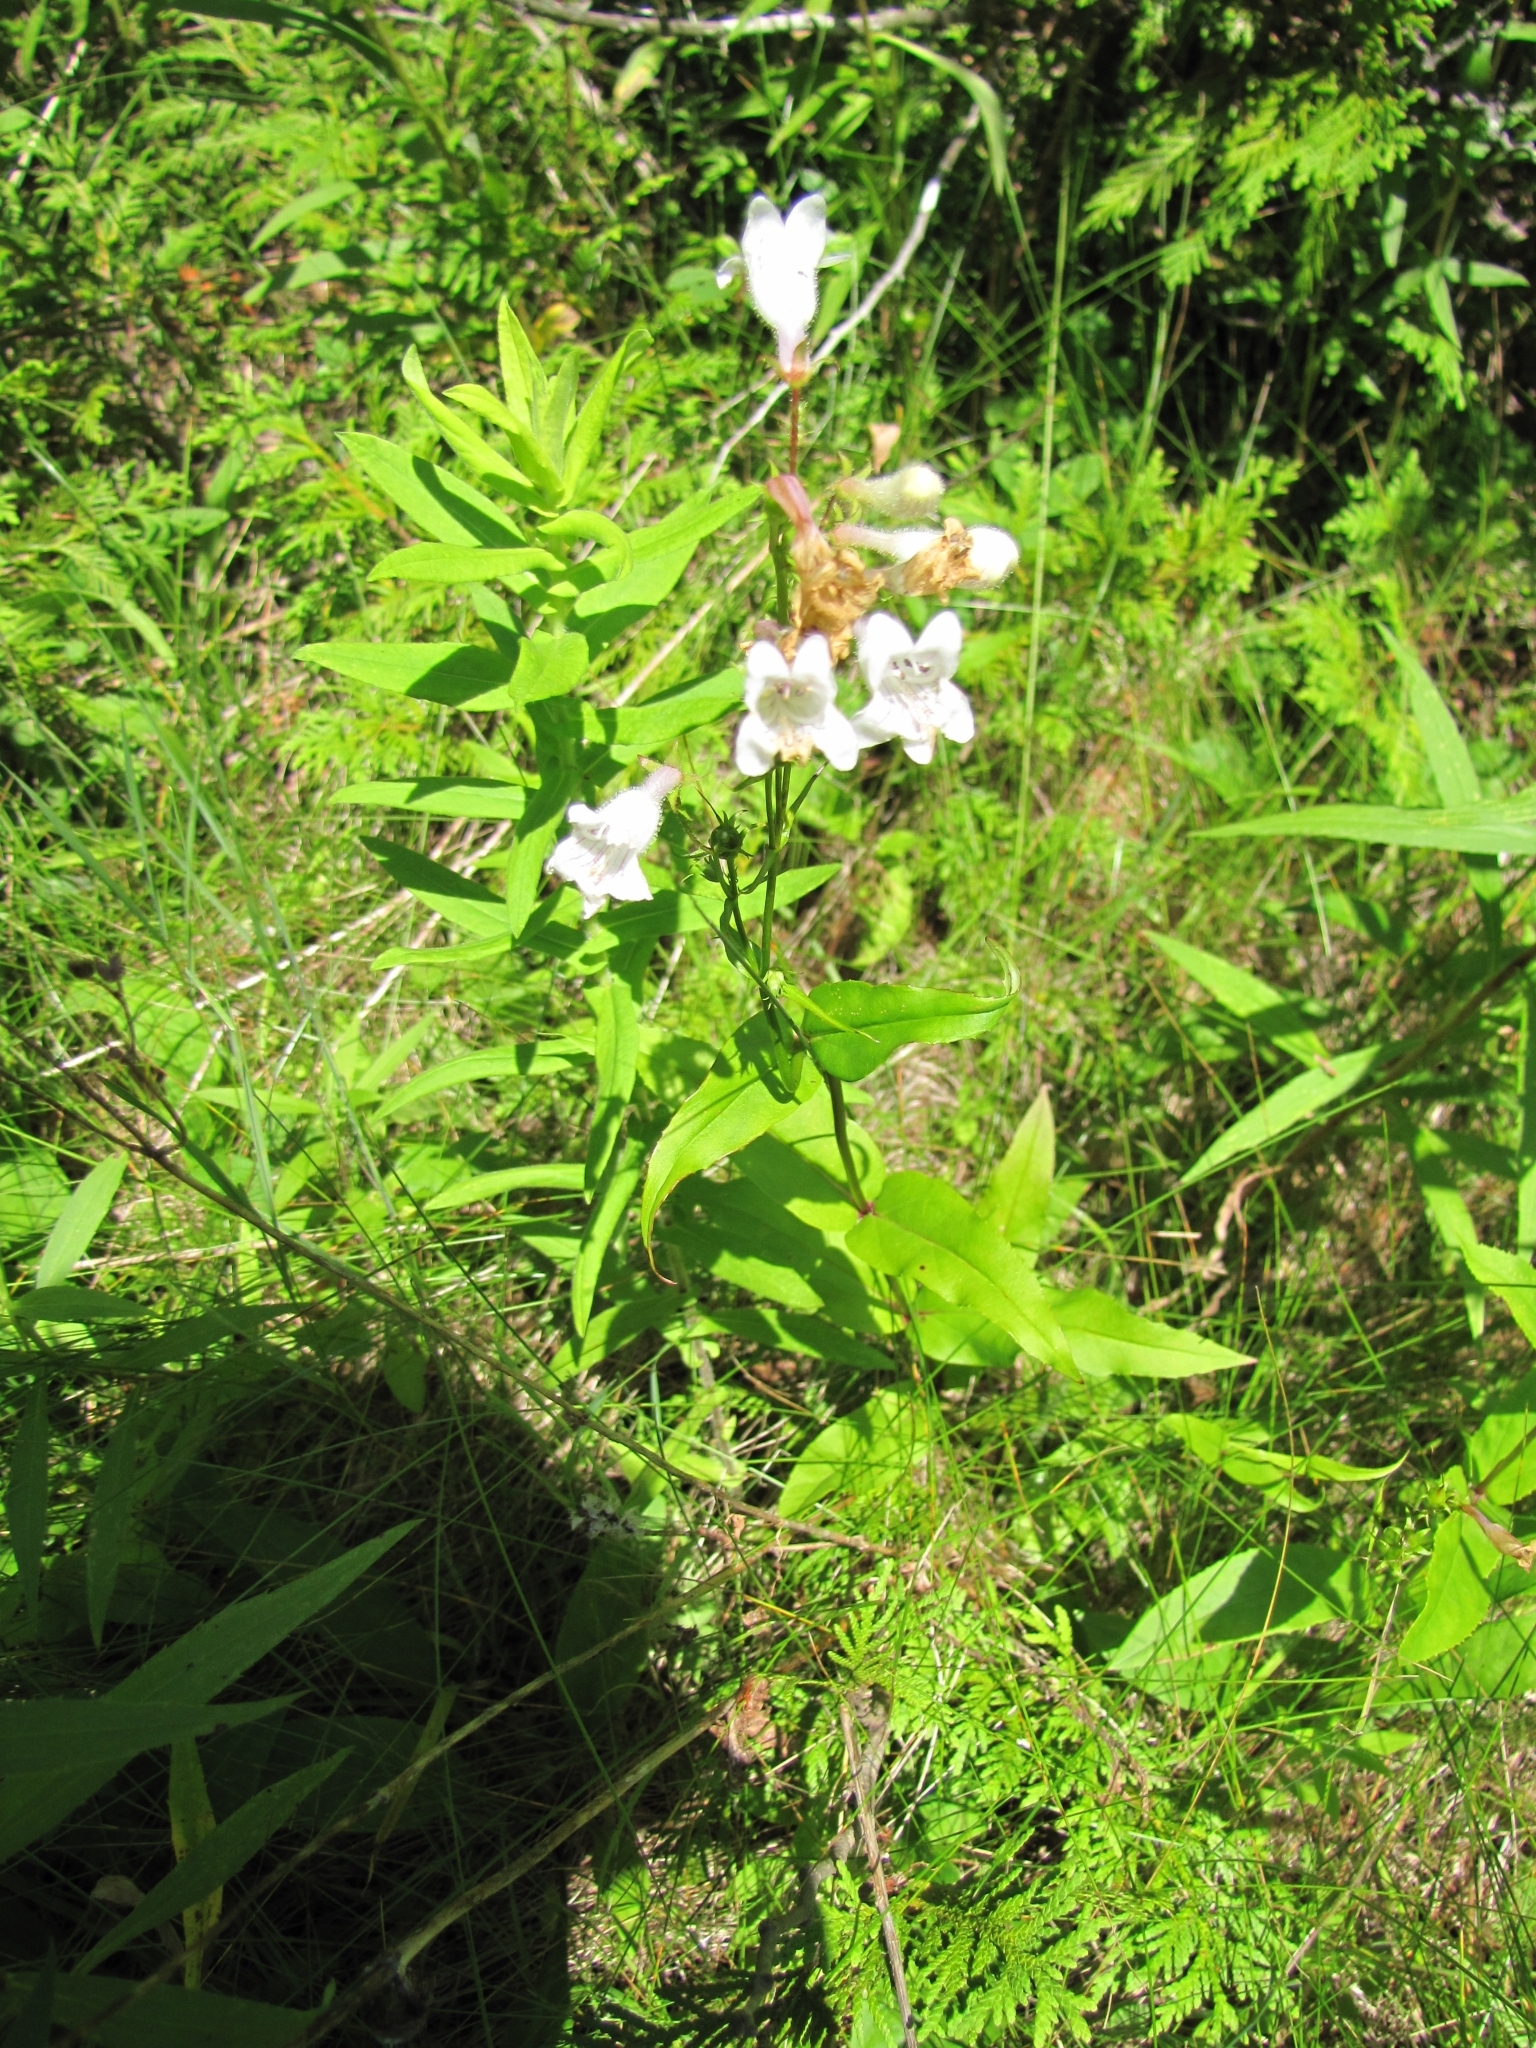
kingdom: Plantae
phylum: Tracheophyta
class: Magnoliopsida
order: Lamiales
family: Plantaginaceae
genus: Penstemon
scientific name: Penstemon digitalis
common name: Foxglove beardtongue
